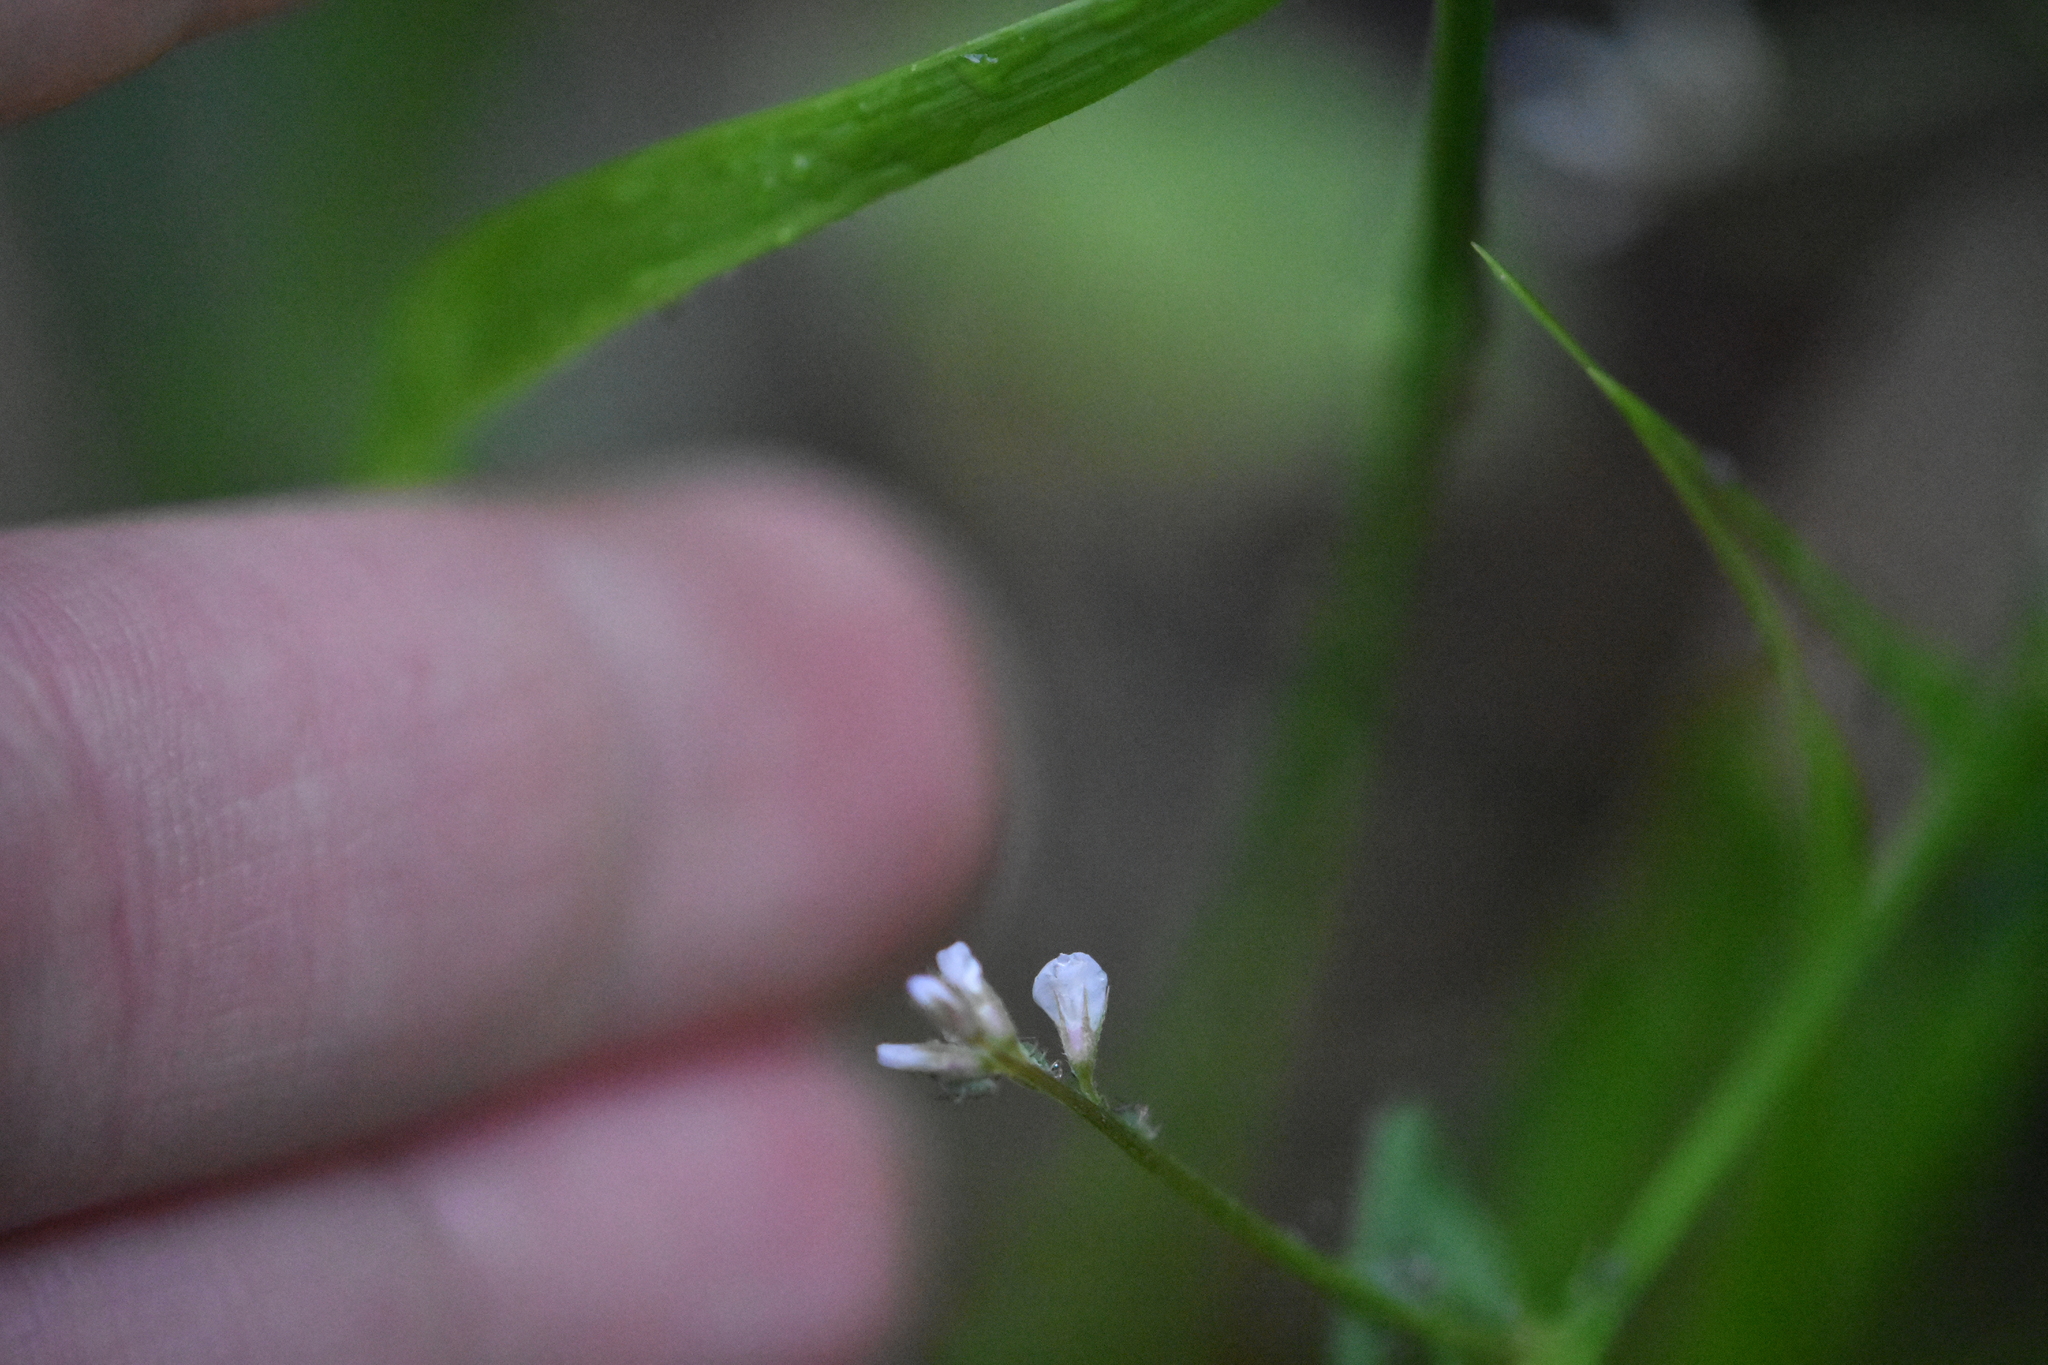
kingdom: Plantae
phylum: Tracheophyta
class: Magnoliopsida
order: Fabales
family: Fabaceae
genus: Vicia
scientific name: Vicia hirsuta
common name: Tiny vetch
